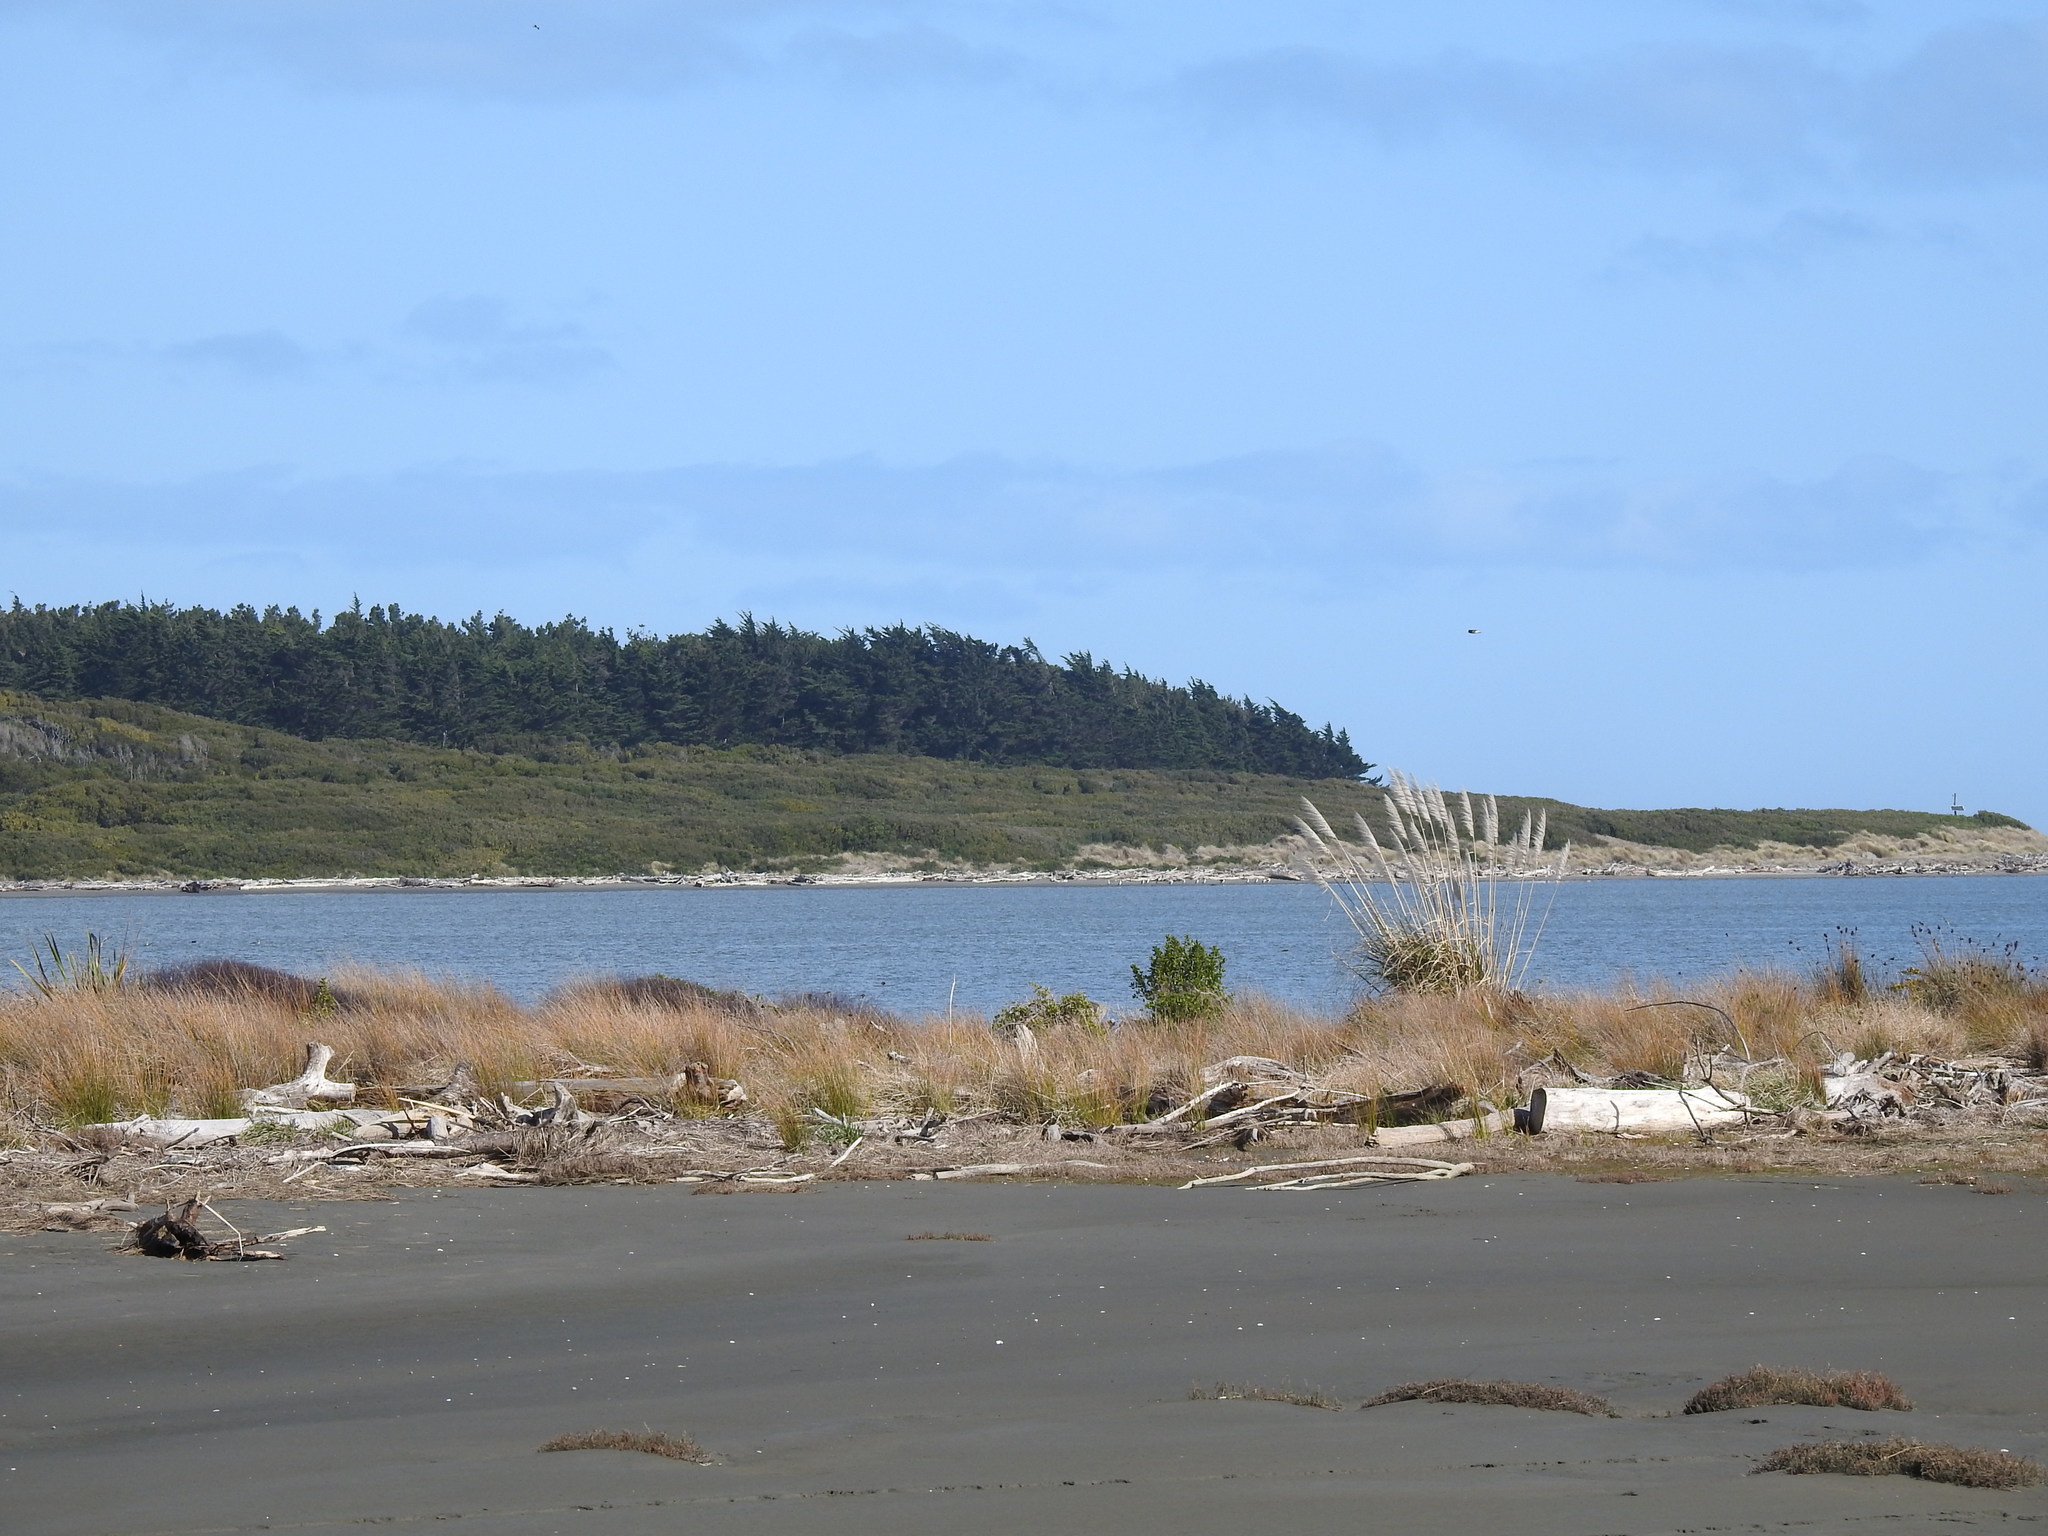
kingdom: Plantae
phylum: Tracheophyta
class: Magnoliopsida
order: Fabales
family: Fabaceae
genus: Acacia
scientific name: Acacia longifolia
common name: Sydney golden wattle
